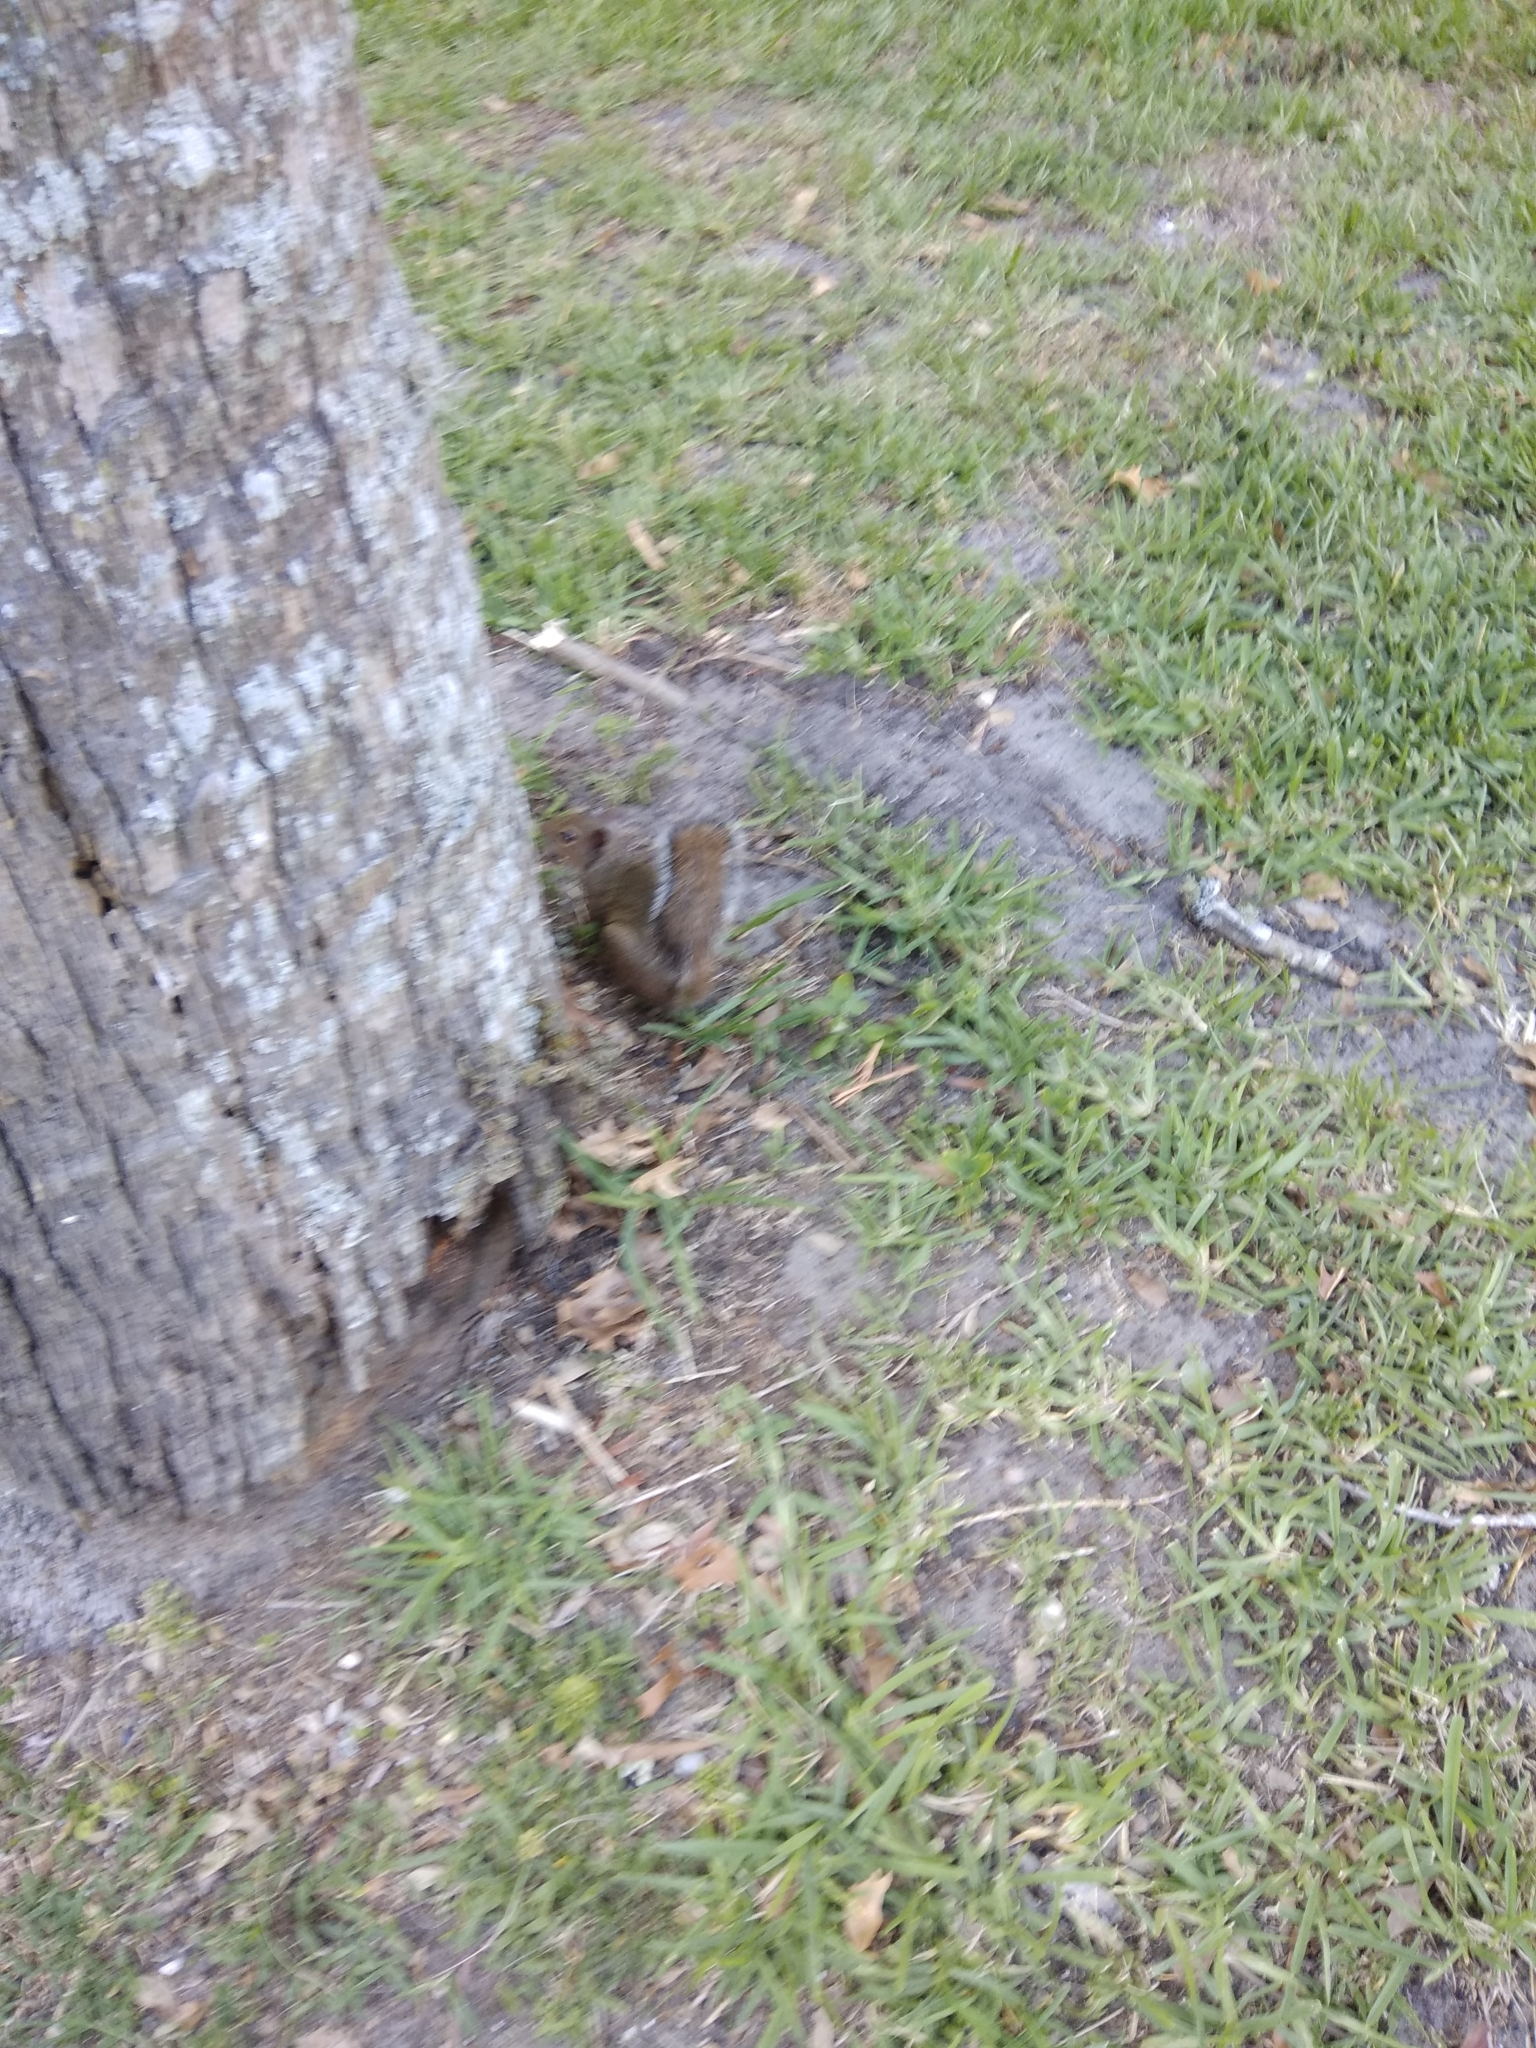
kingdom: Animalia
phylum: Chordata
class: Mammalia
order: Rodentia
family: Sciuridae
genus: Sciurus
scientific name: Sciurus carolinensis
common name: Eastern gray squirrel
